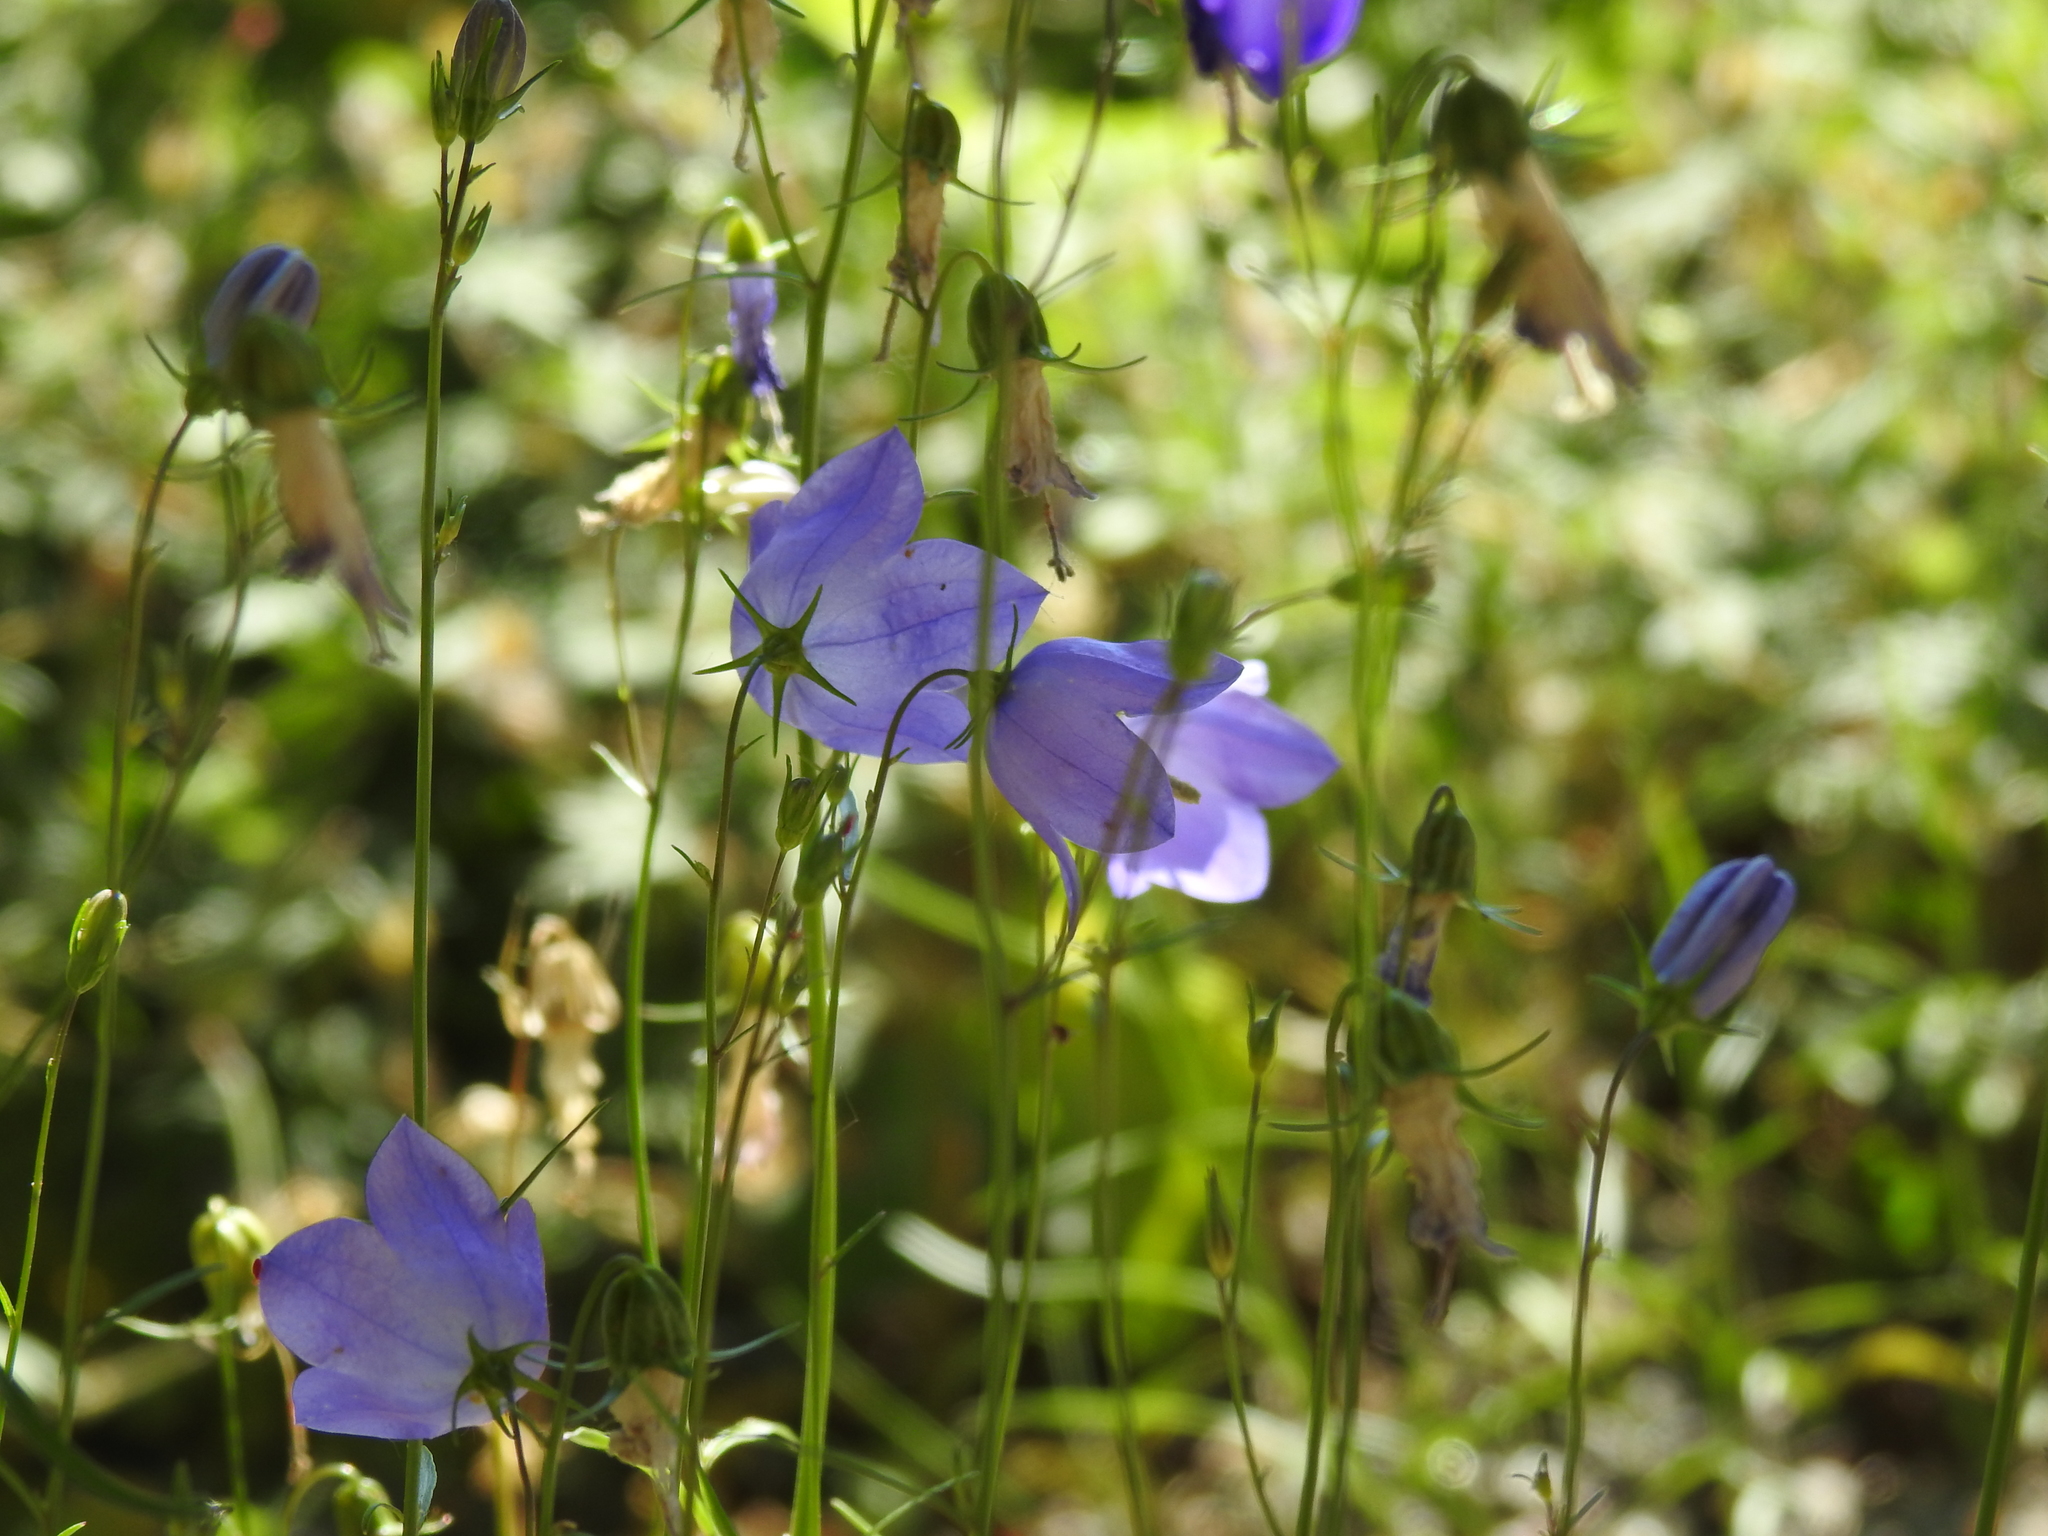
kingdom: Plantae
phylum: Tracheophyta
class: Magnoliopsida
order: Asterales
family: Campanulaceae
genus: Campanula
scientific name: Campanula rotundifolia
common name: Harebell
